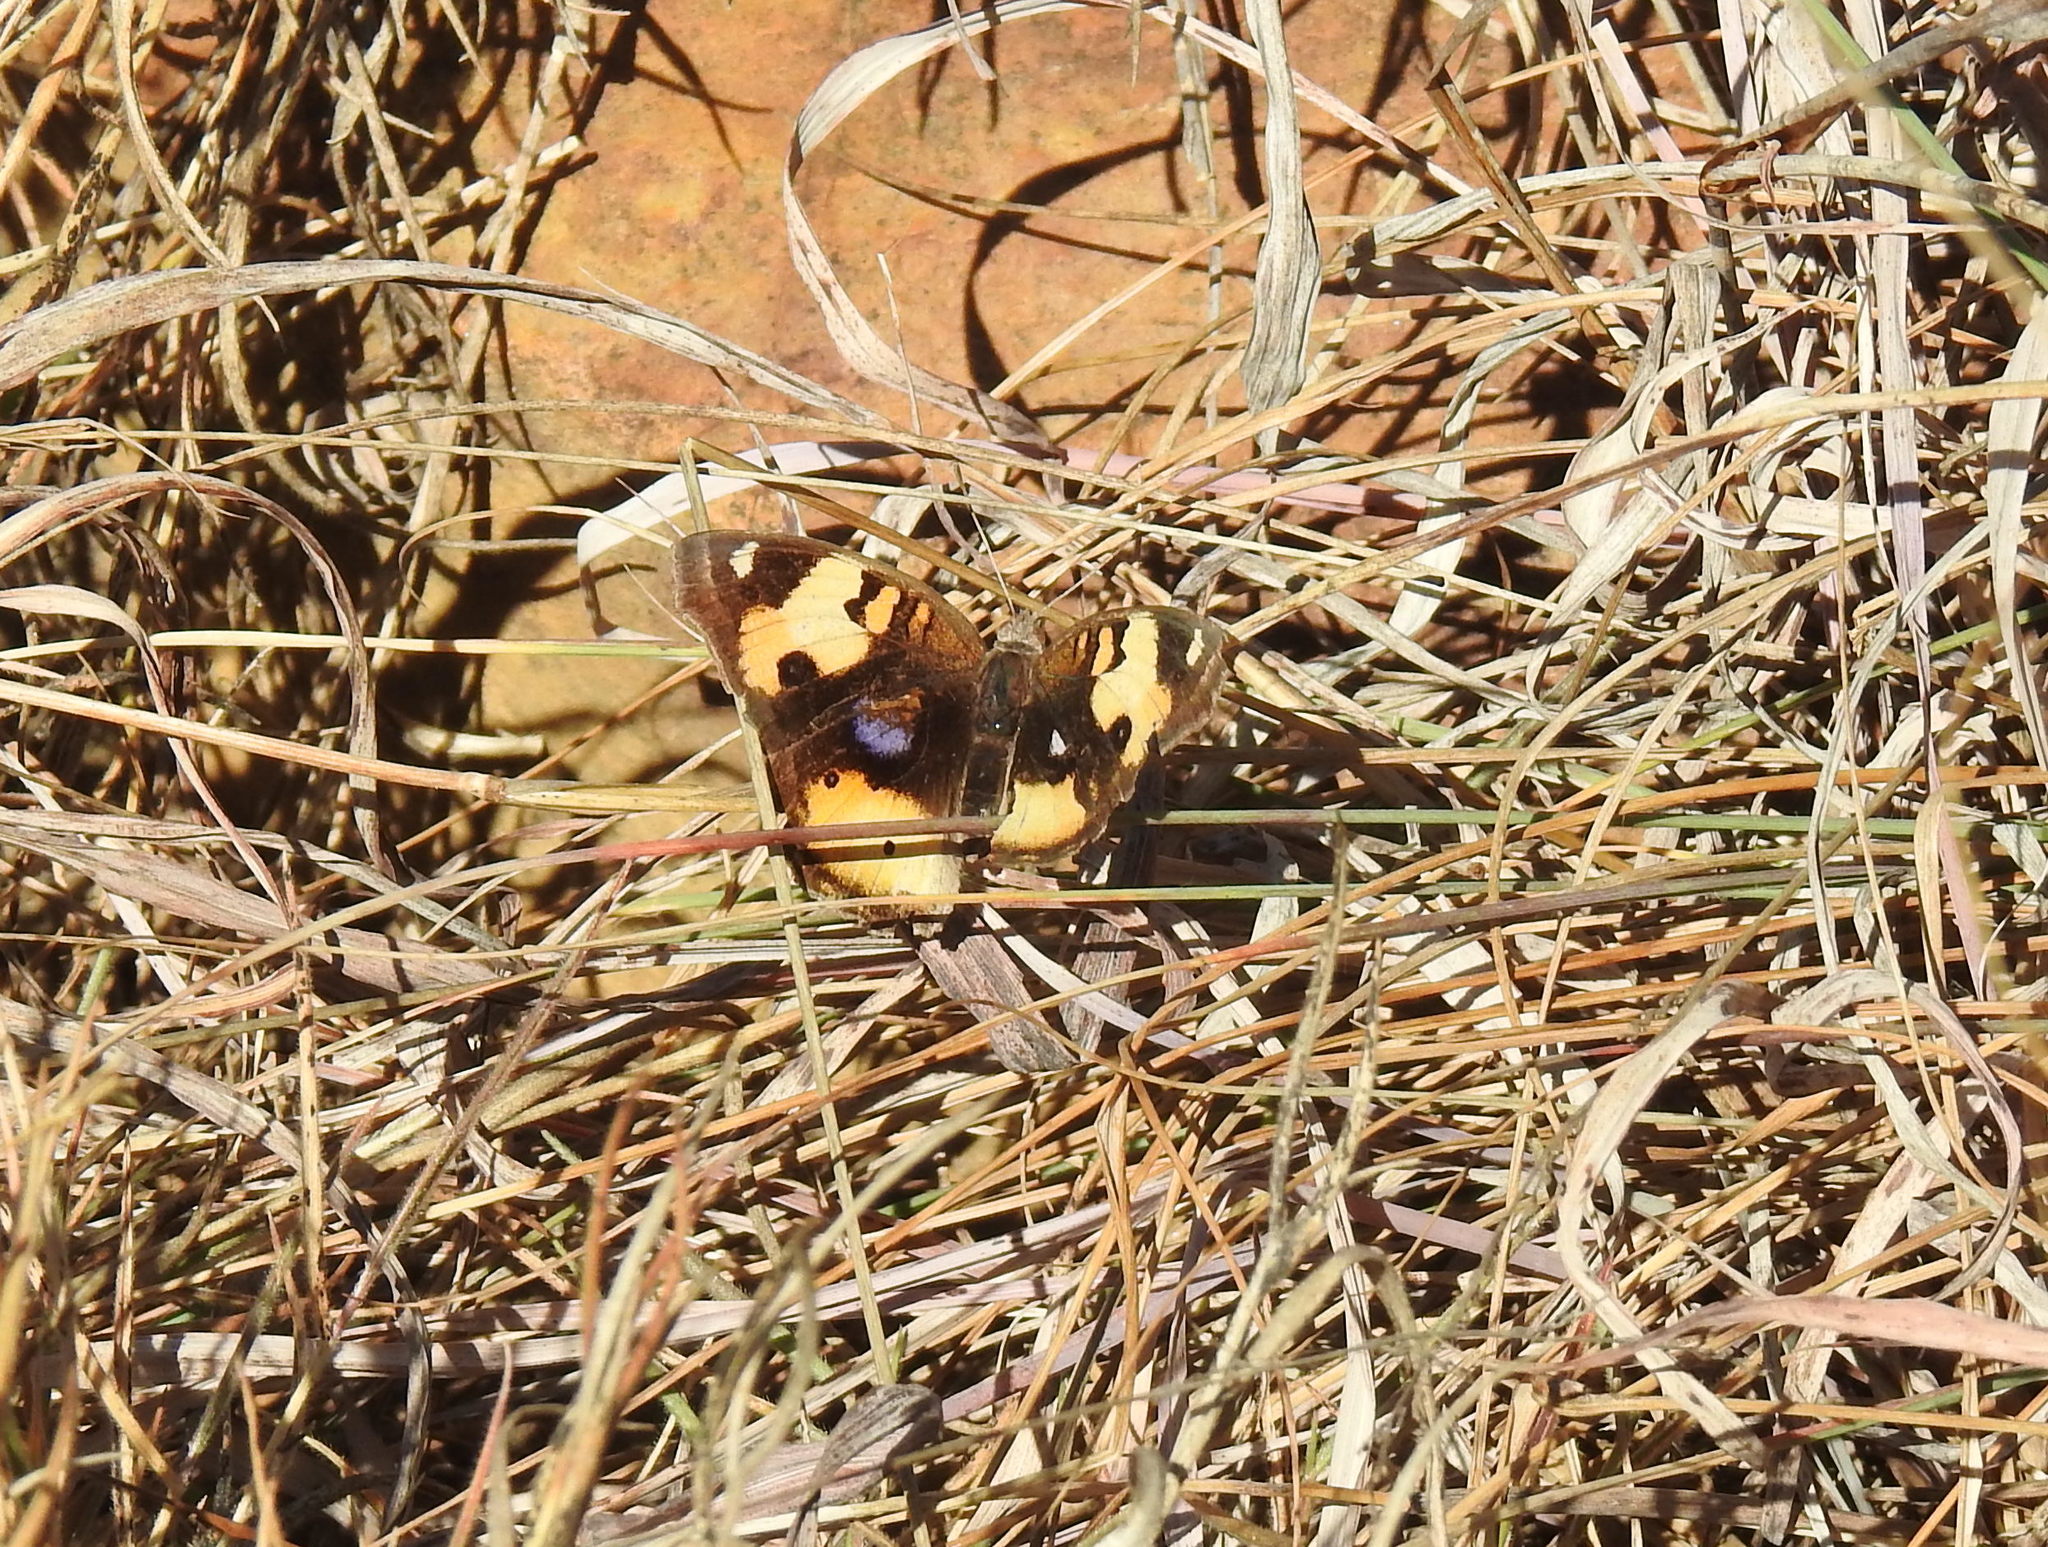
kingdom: Animalia
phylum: Arthropoda
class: Insecta
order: Lepidoptera
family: Nymphalidae
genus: Junonia
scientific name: Junonia hierta
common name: Yellow pansy
